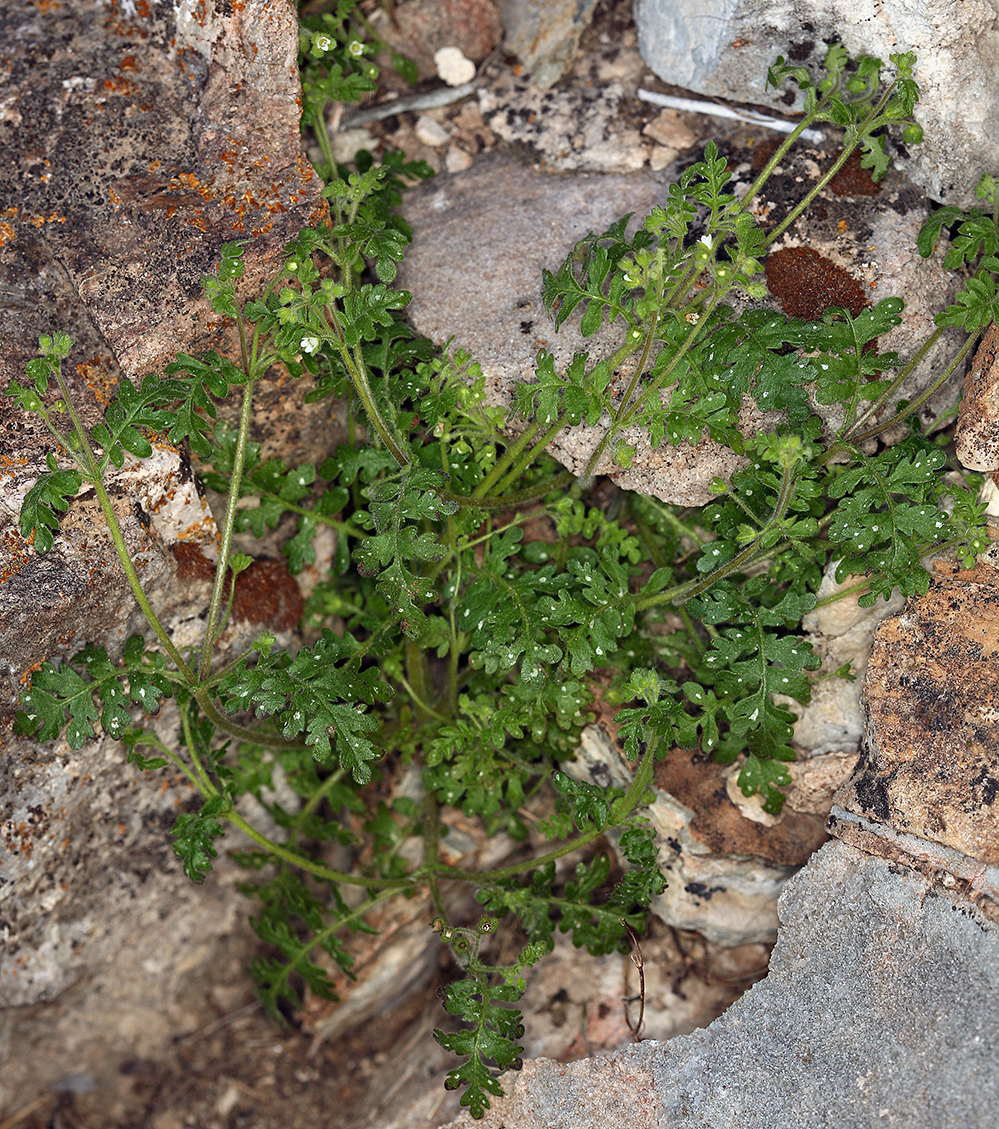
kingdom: Plantae
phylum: Tracheophyta
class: Magnoliopsida
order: Boraginales
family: Hydrophyllaceae
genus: Eucrypta
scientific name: Eucrypta chrysanthemifolia
